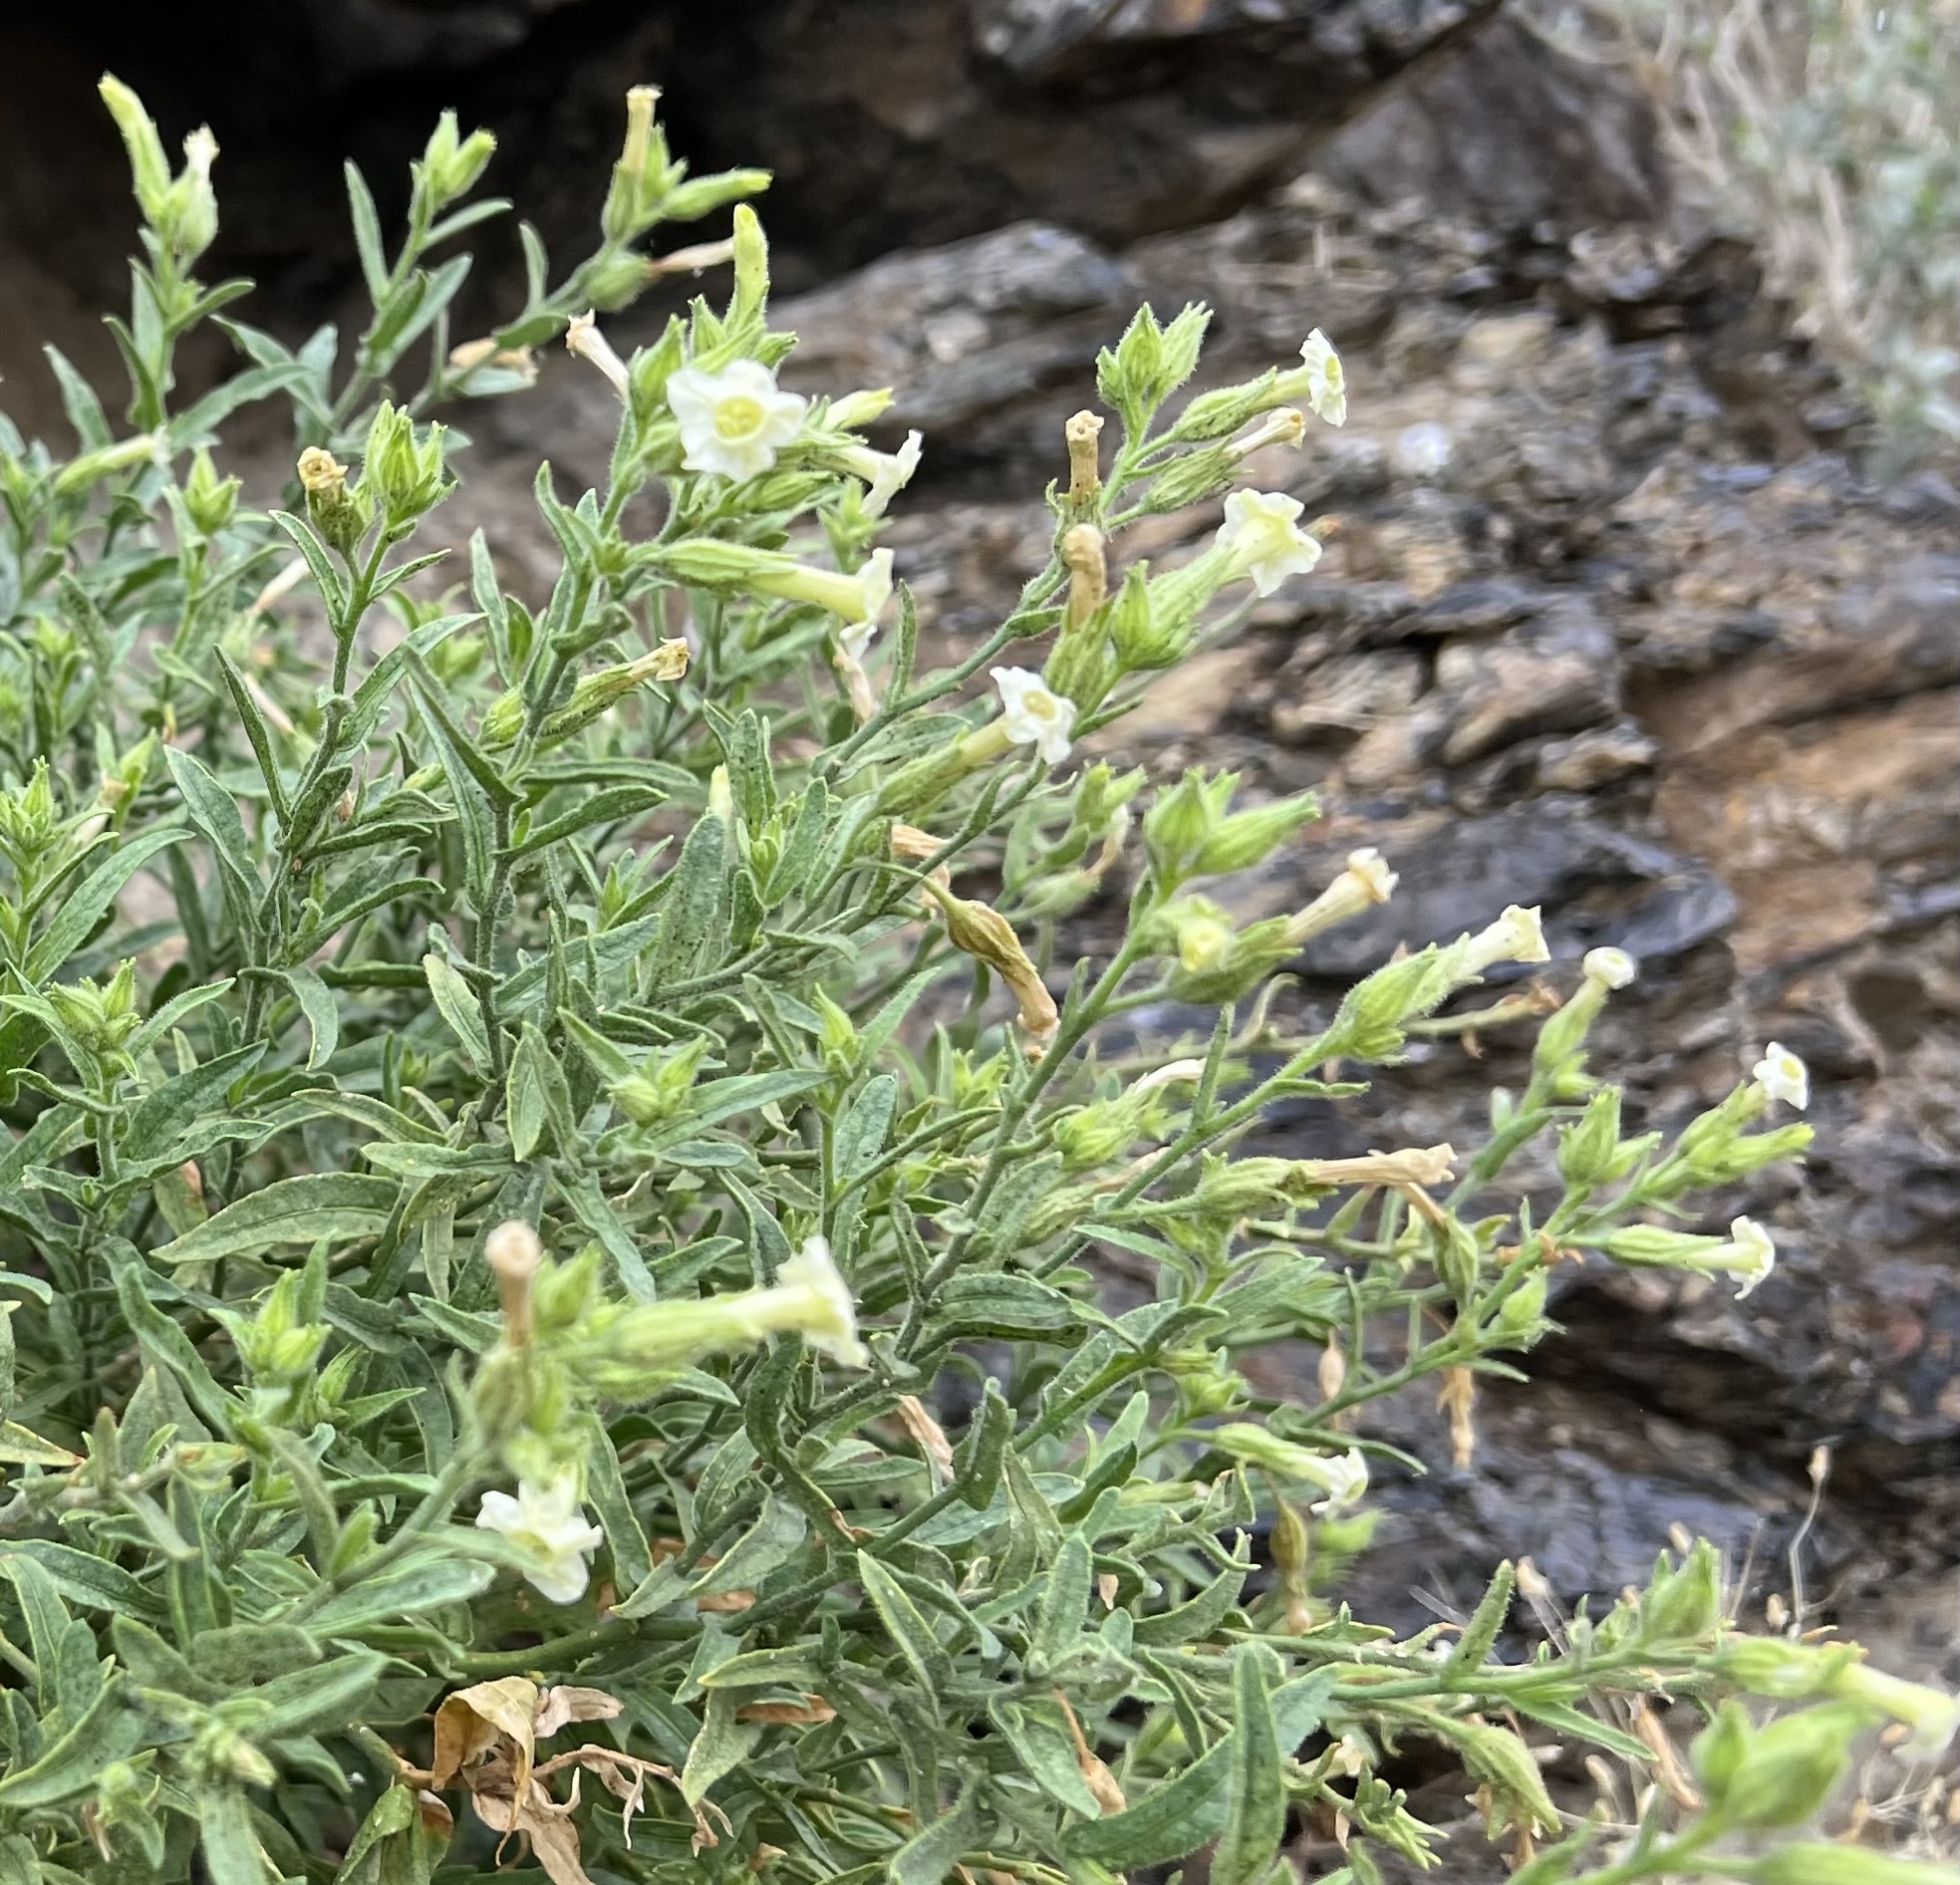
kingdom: Plantae
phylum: Tracheophyta
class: Magnoliopsida
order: Solanales
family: Solanaceae
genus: Nicotiana
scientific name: Nicotiana obtusifolia
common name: Desert tobacco
